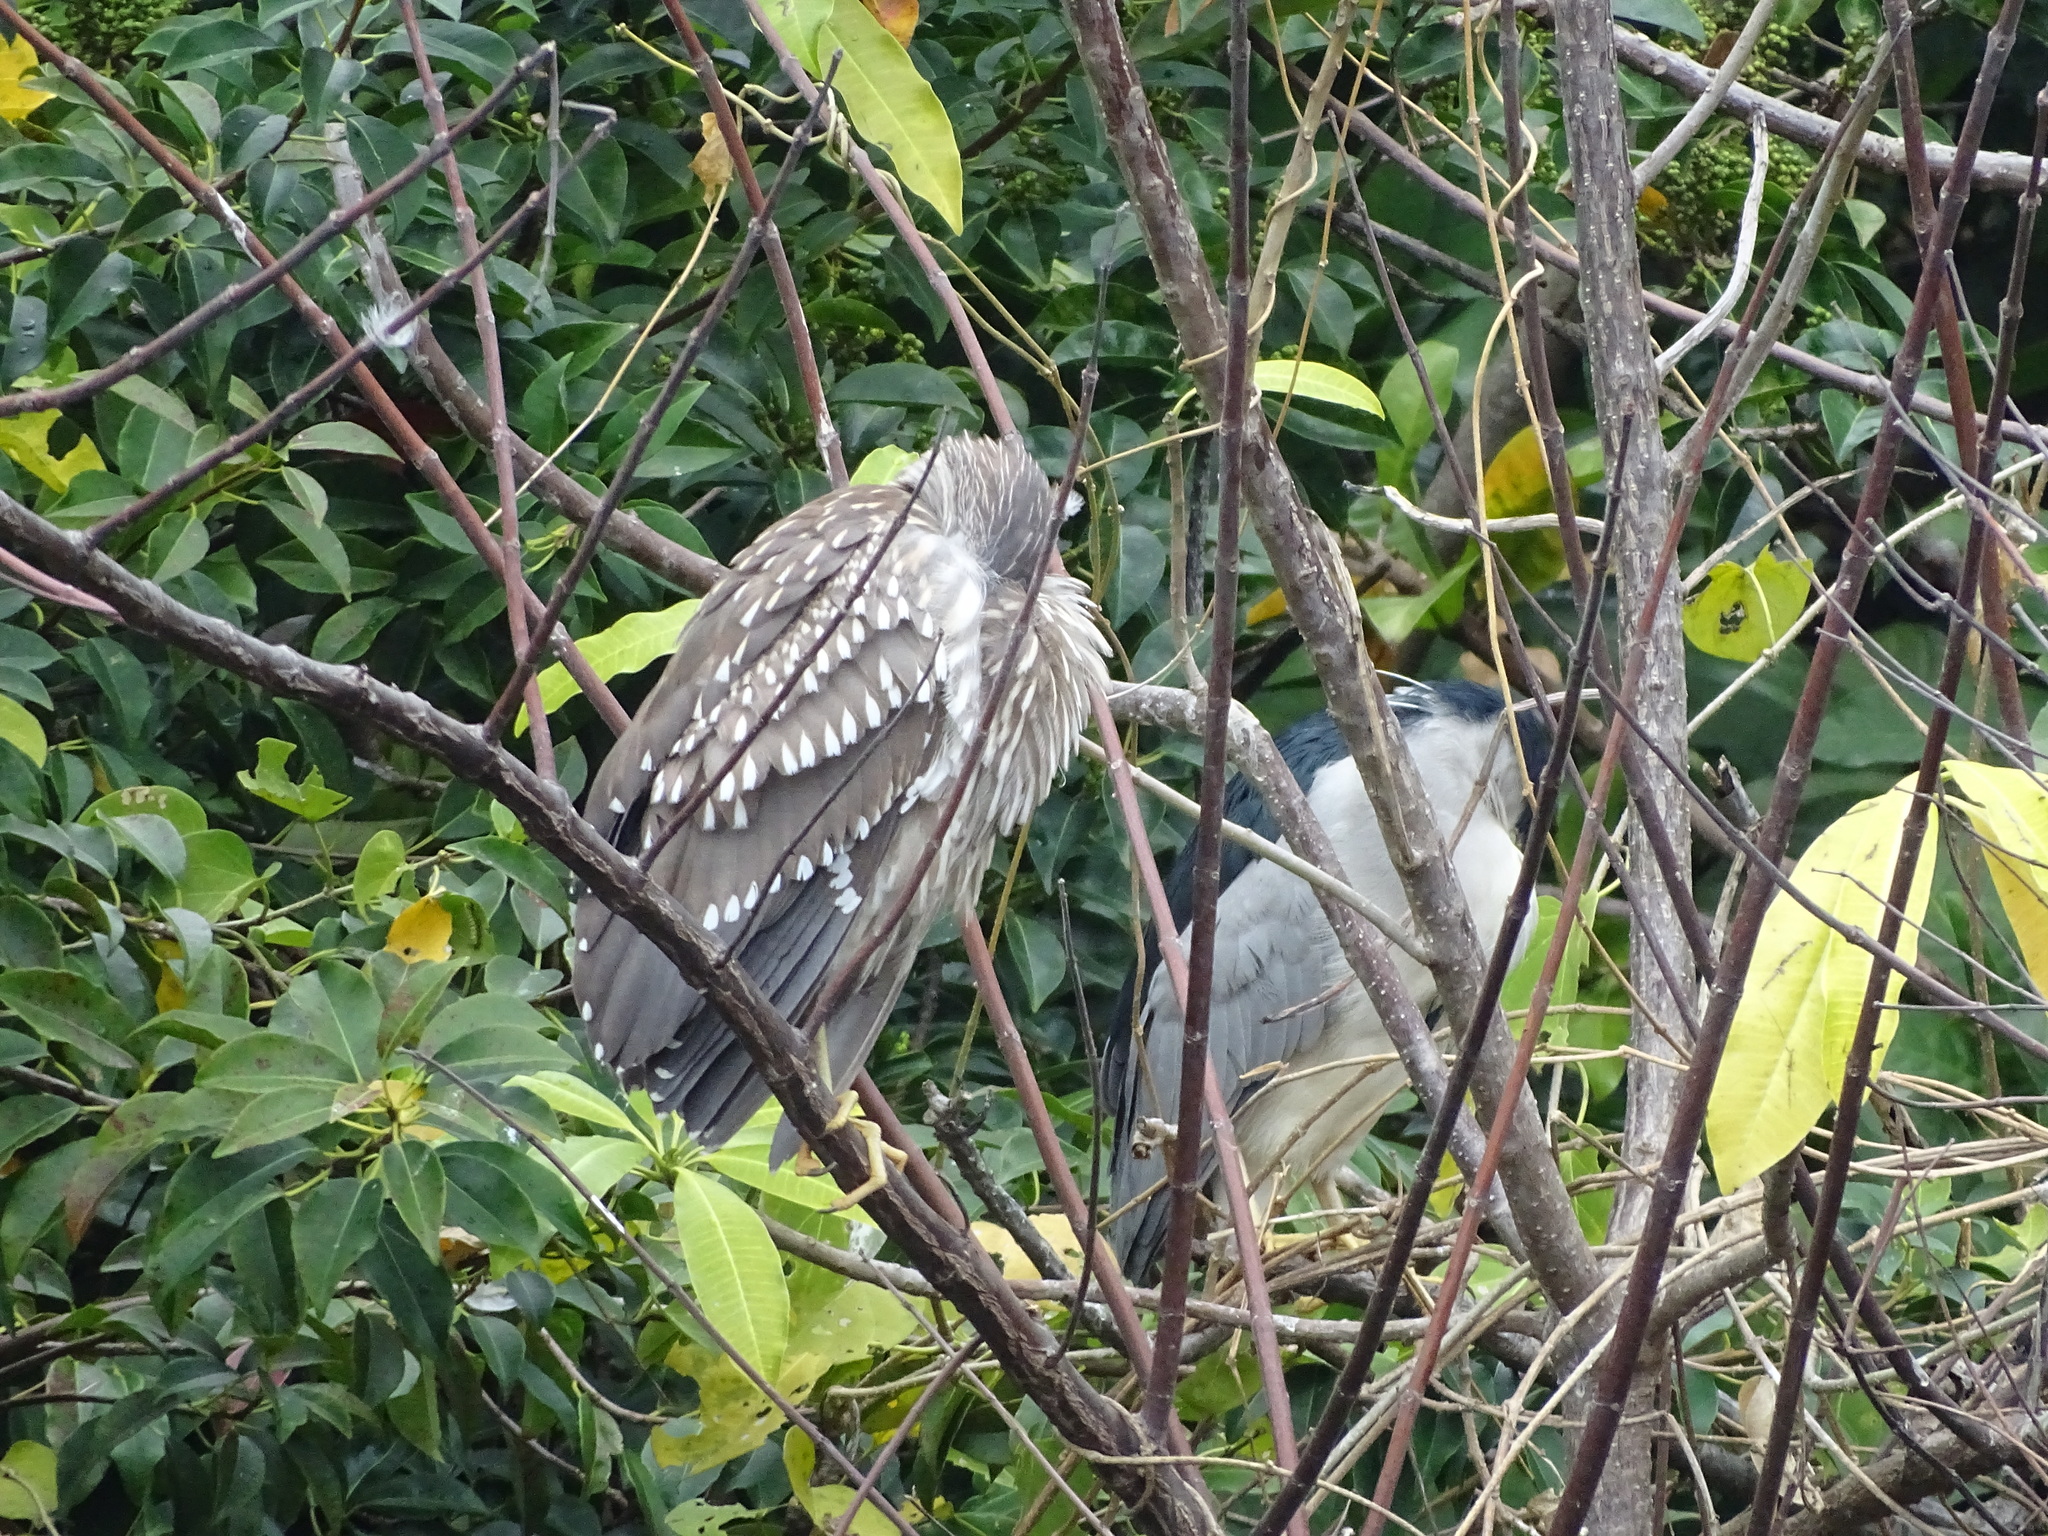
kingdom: Animalia
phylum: Chordata
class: Aves
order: Pelecaniformes
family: Ardeidae
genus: Nycticorax
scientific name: Nycticorax nycticorax
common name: Black-crowned night heron
